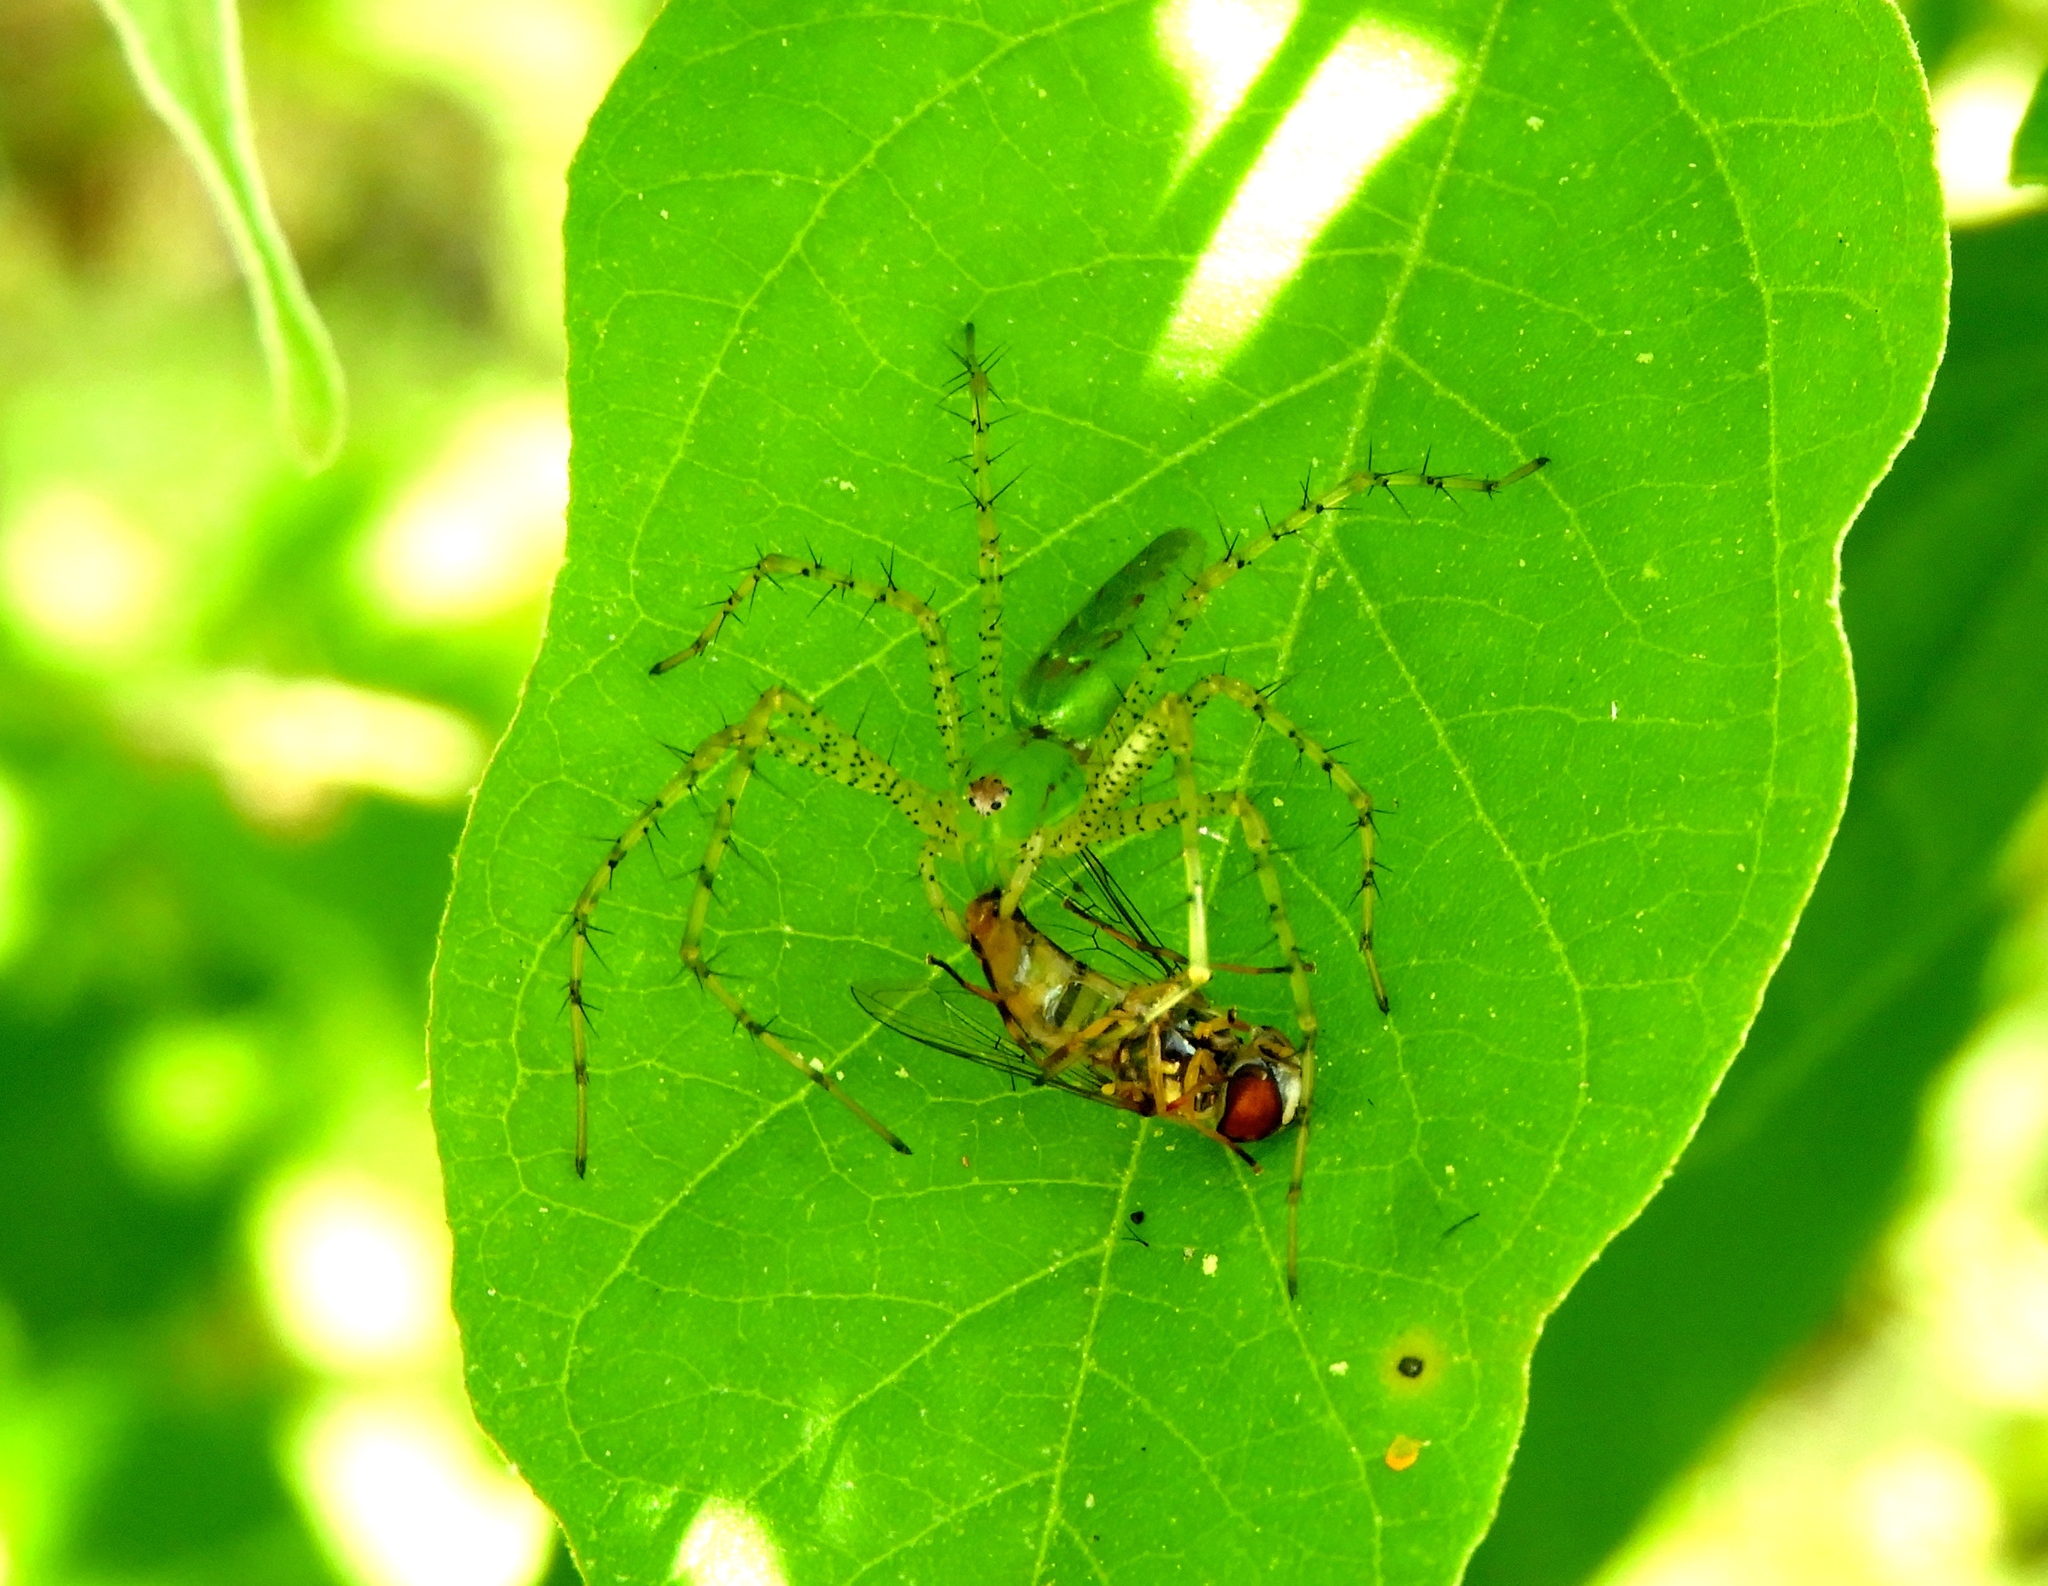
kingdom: Animalia
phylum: Arthropoda
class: Arachnida
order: Araneae
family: Oxyopidae
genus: Peucetia
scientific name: Peucetia
